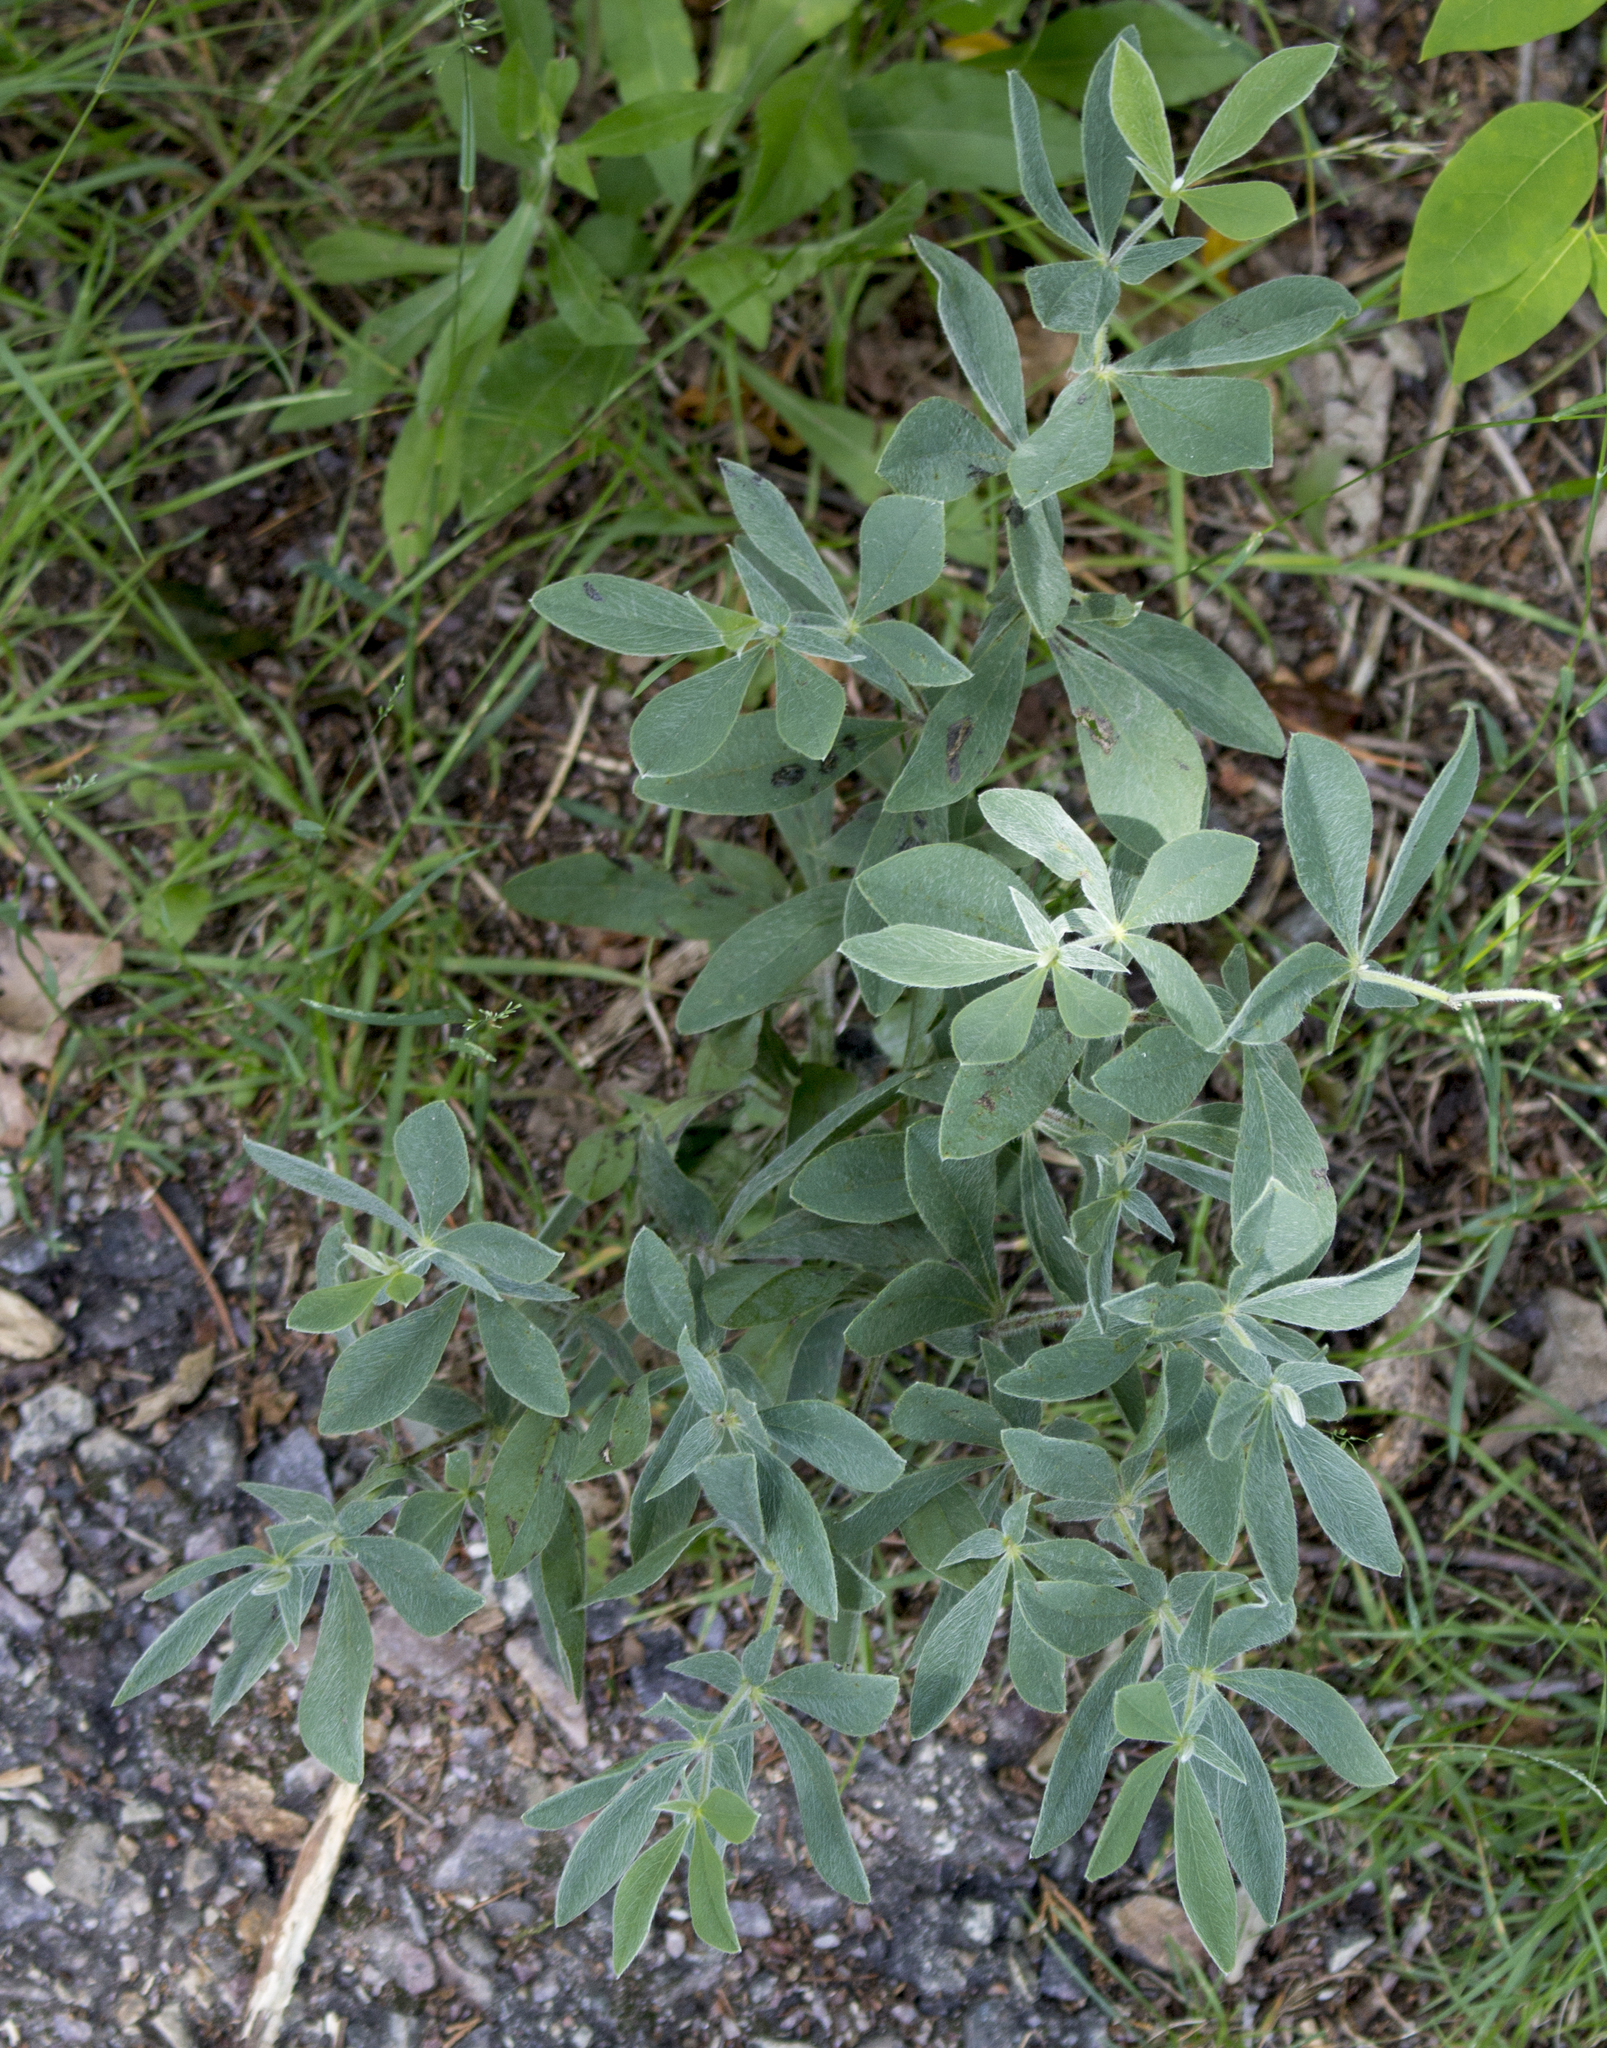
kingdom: Plantae
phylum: Tracheophyta
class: Magnoliopsida
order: Fabales
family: Fabaceae
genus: Baptisia
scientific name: Baptisia bracteata
